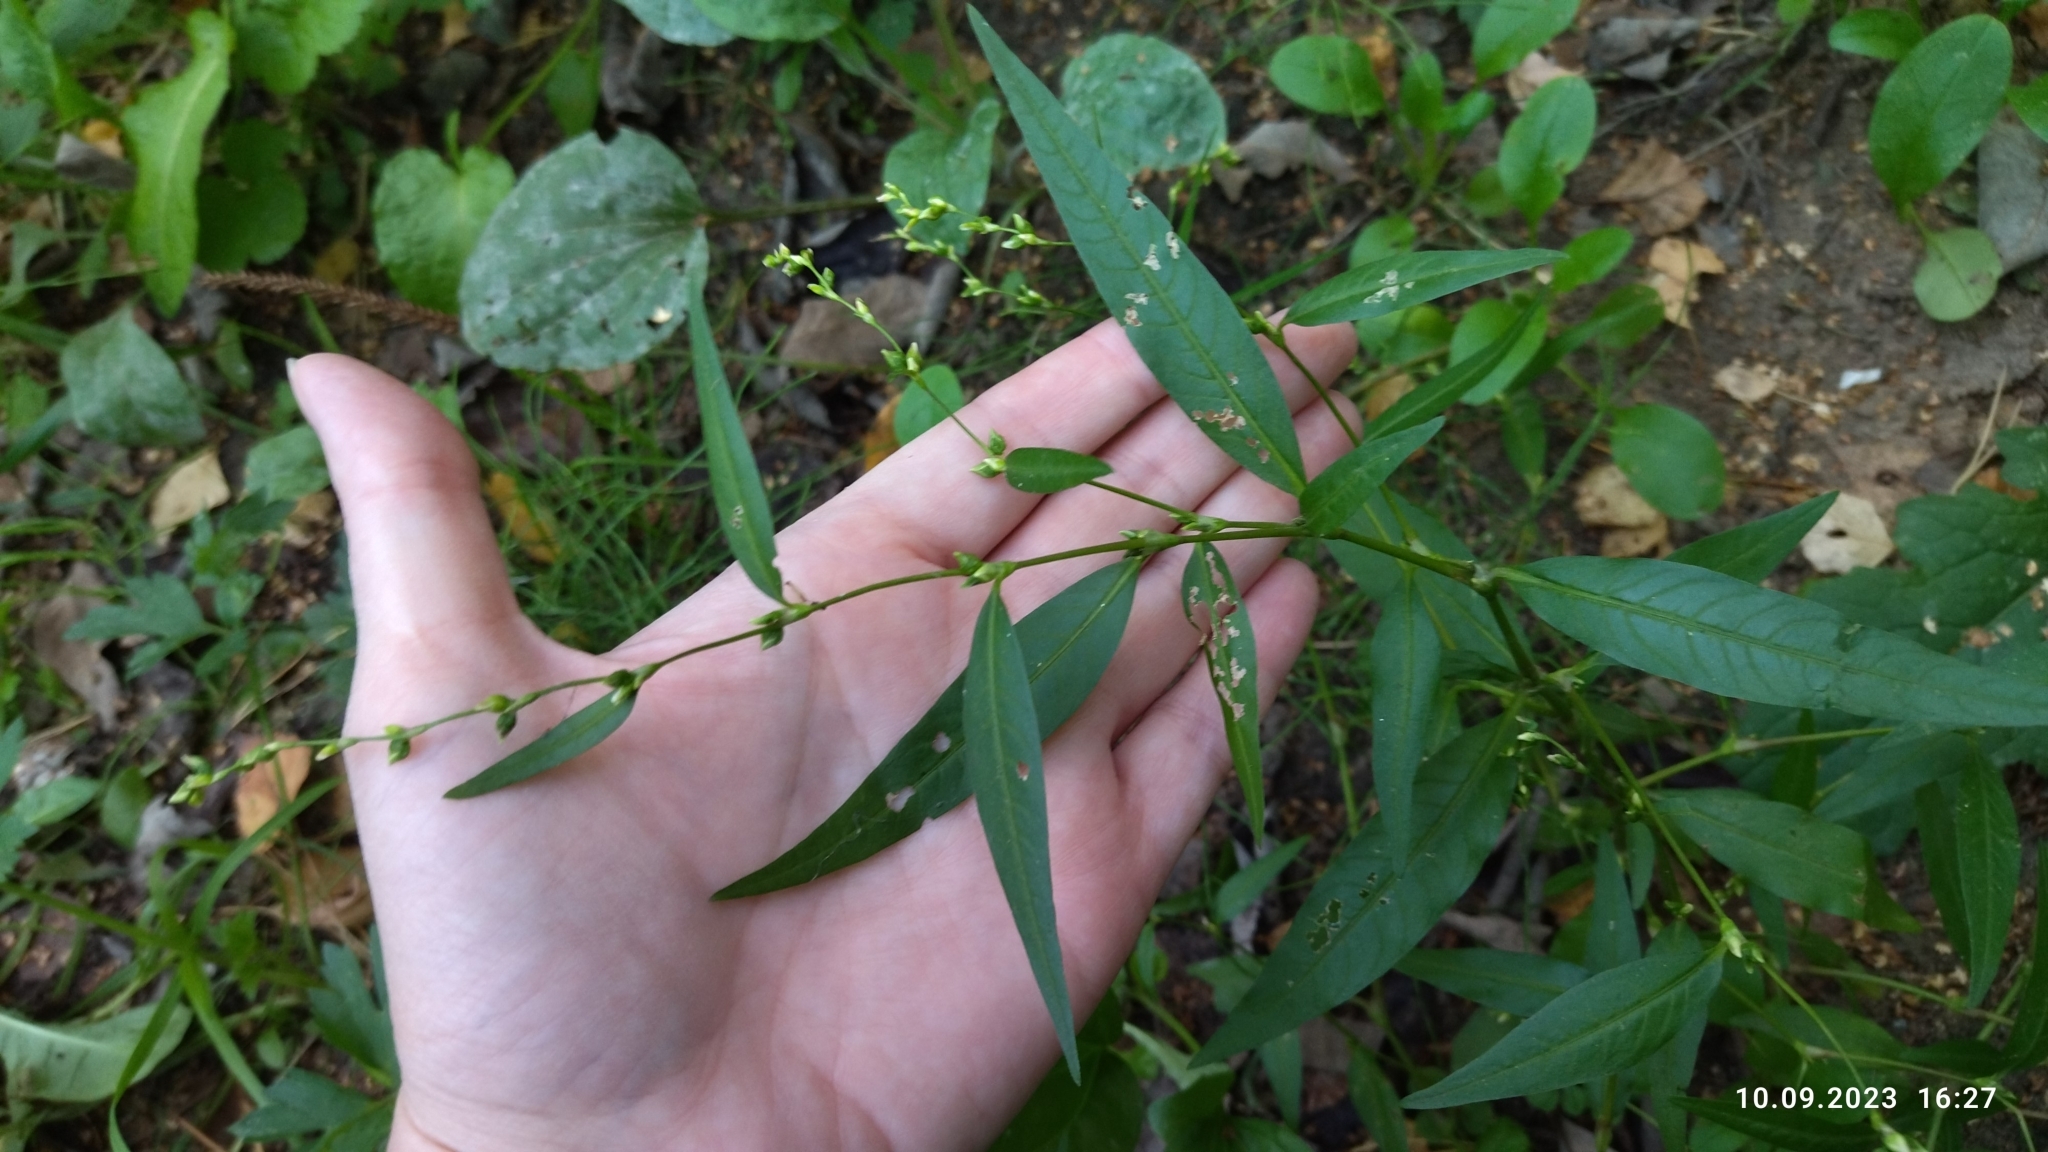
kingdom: Plantae
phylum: Tracheophyta
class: Magnoliopsida
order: Caryophyllales
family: Polygonaceae
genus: Persicaria
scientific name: Persicaria hydropiper
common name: Water-pepper
